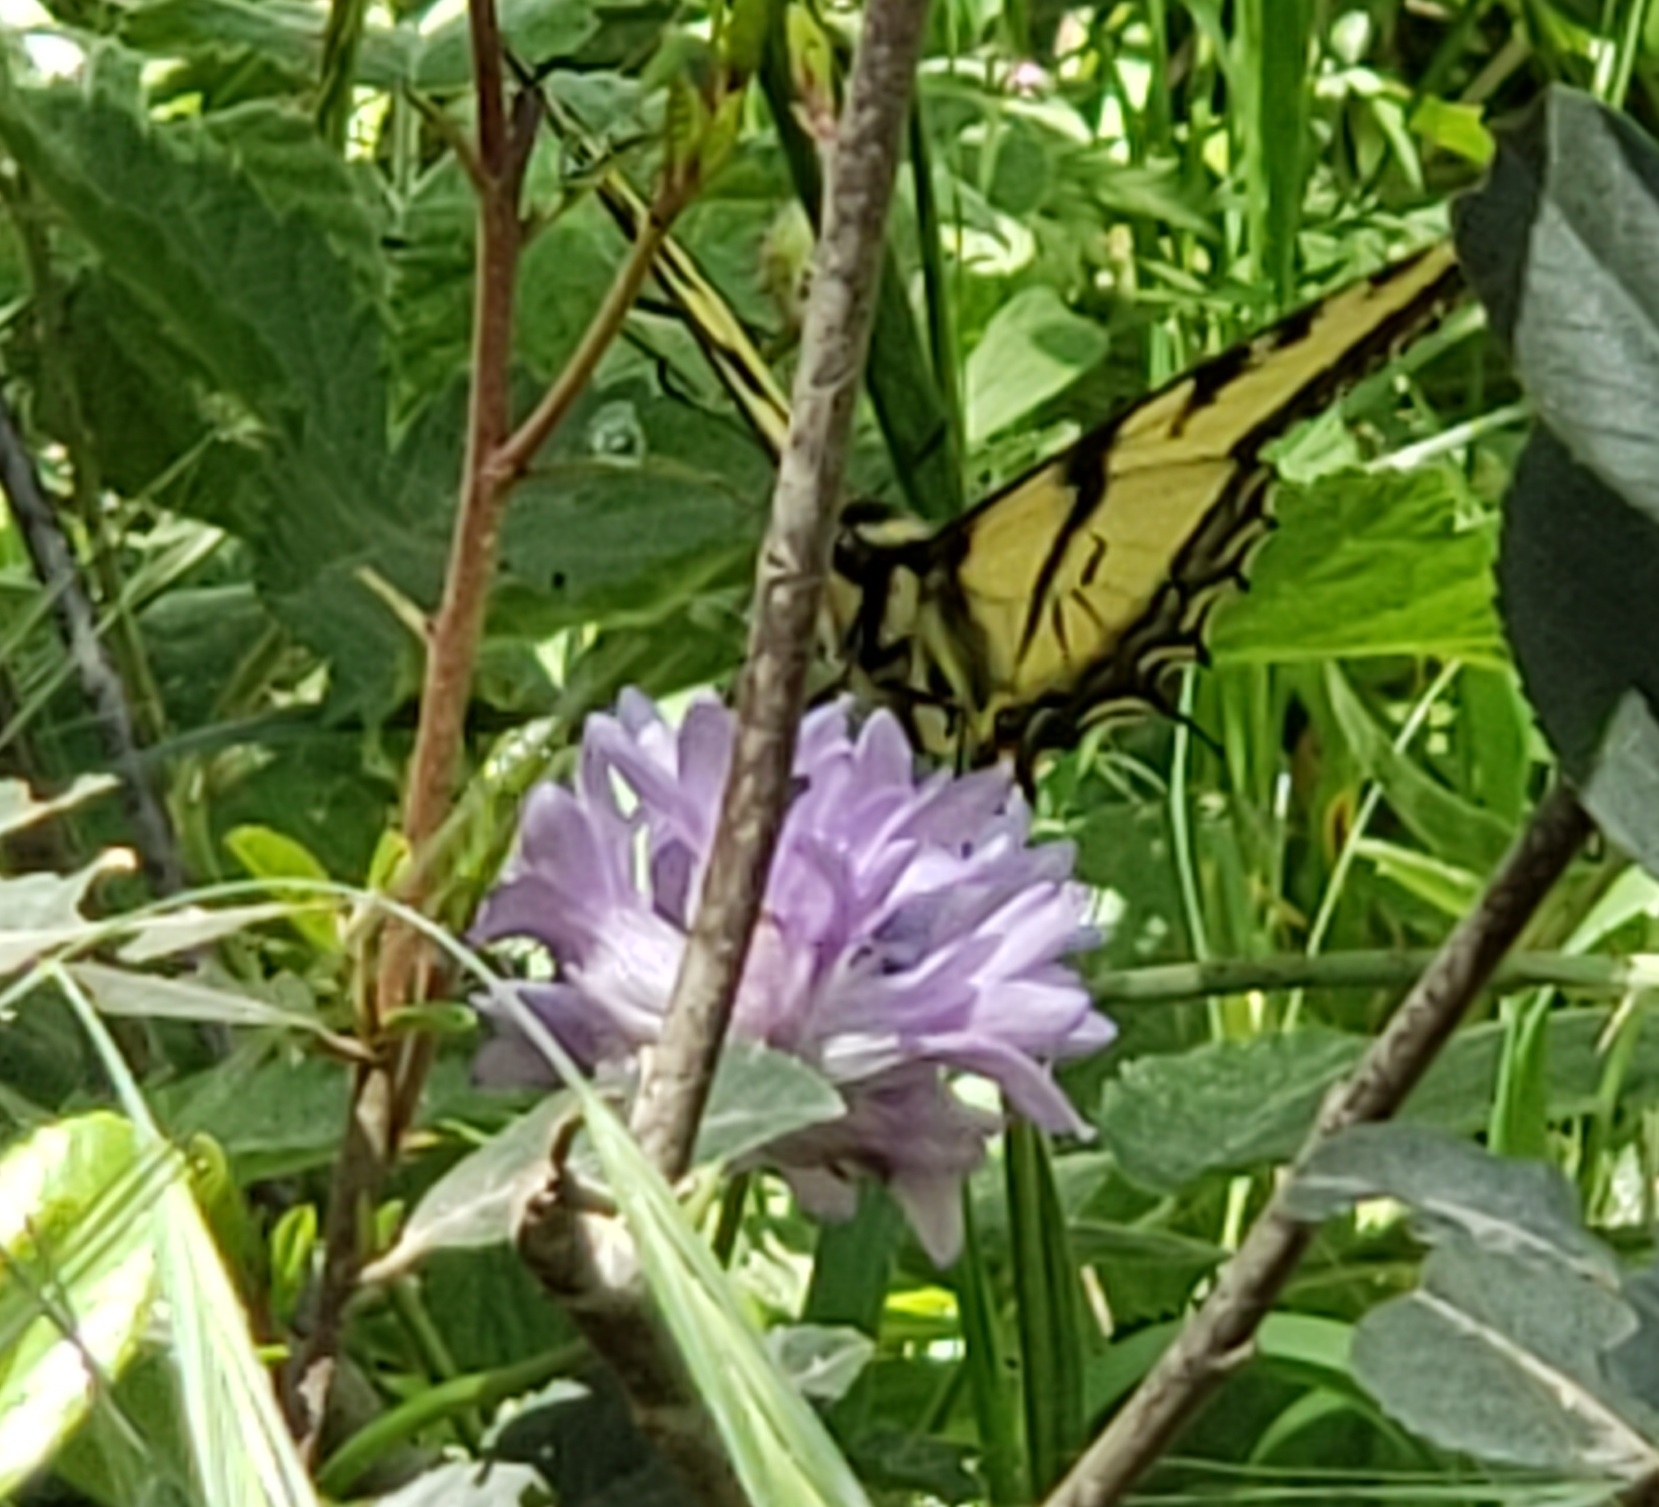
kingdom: Animalia
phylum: Arthropoda
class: Insecta
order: Lepidoptera
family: Papilionidae
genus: Papilio
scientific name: Papilio rutulus
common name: Western tiger swallowtail
